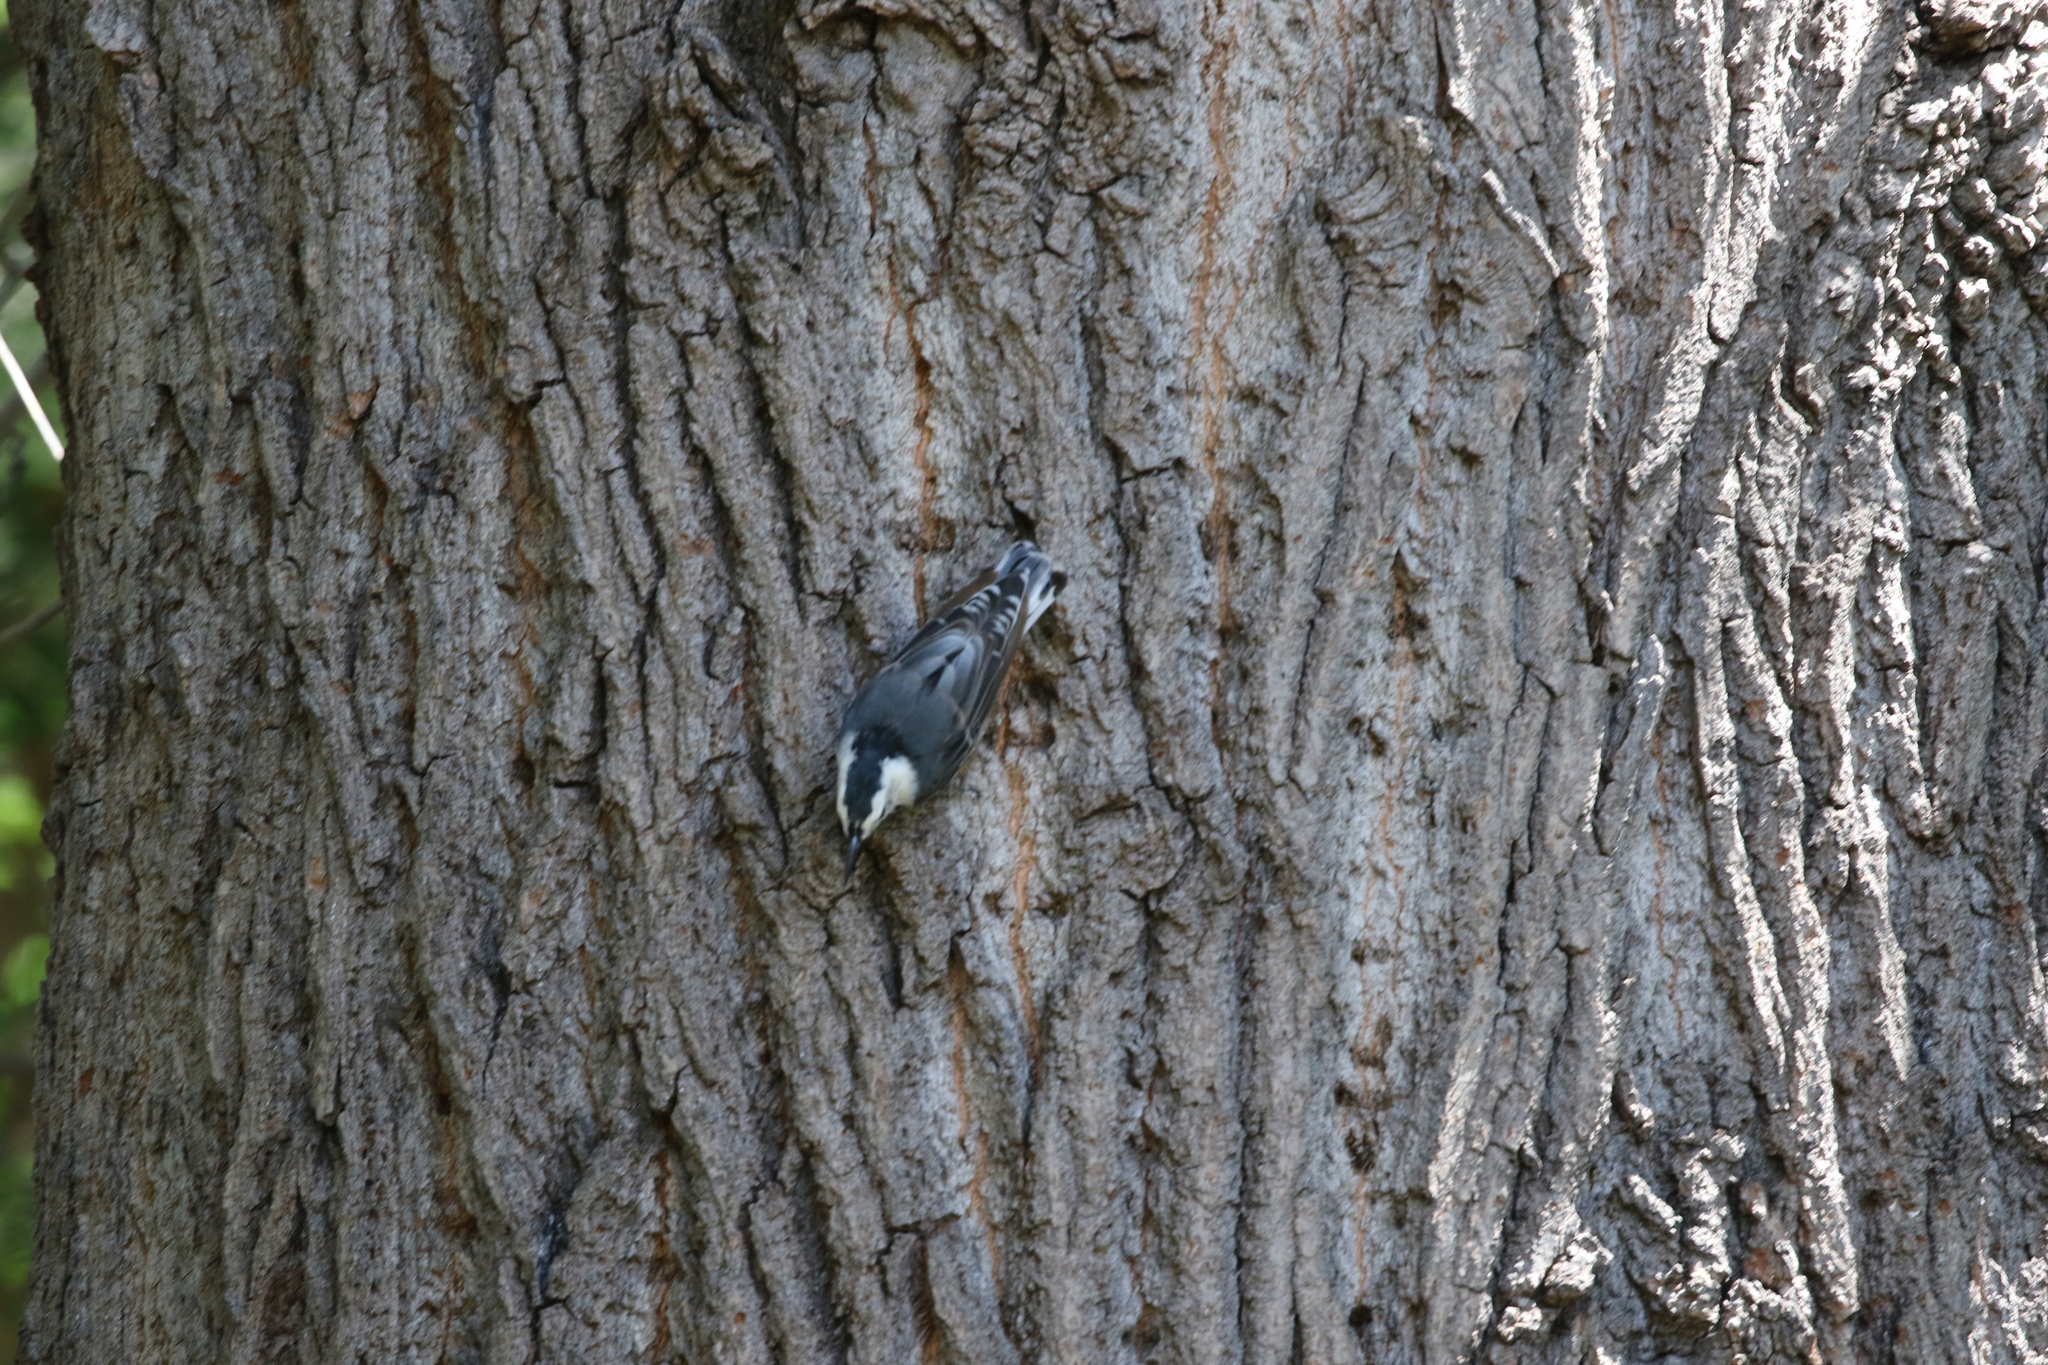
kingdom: Animalia
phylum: Chordata
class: Aves
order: Passeriformes
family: Sittidae
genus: Sitta
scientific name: Sitta carolinensis
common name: White-breasted nuthatch
